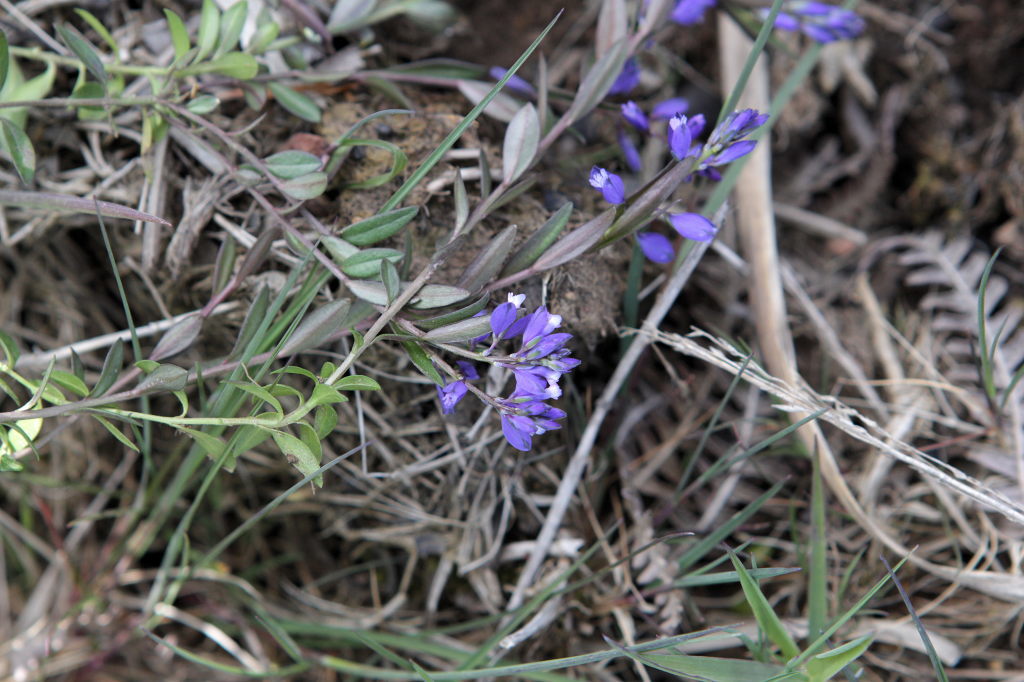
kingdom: Plantae
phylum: Tracheophyta
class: Magnoliopsida
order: Fabales
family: Polygalaceae
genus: Polygala
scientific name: Polygala serpyllifolia
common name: Heath milkwort
